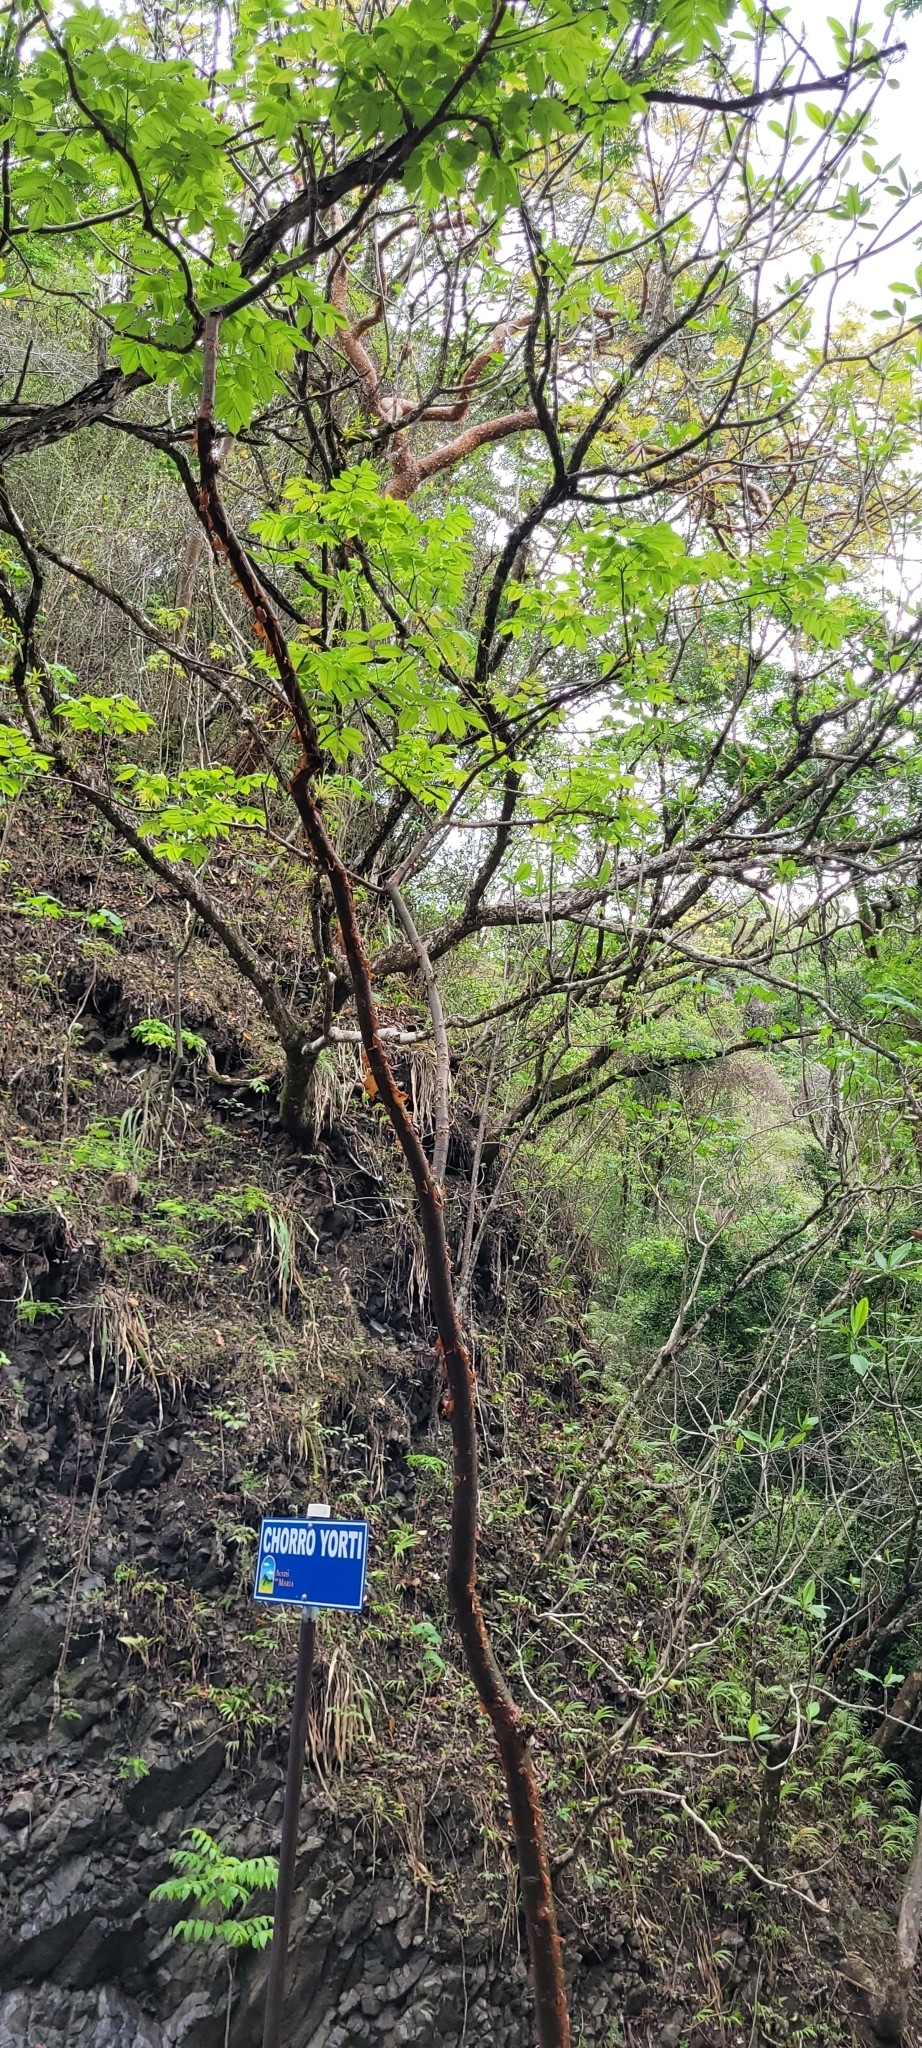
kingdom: Plantae
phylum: Tracheophyta
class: Magnoliopsida
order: Sapindales
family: Burseraceae
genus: Bursera
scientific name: Bursera simaruba
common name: Turpentine tree
